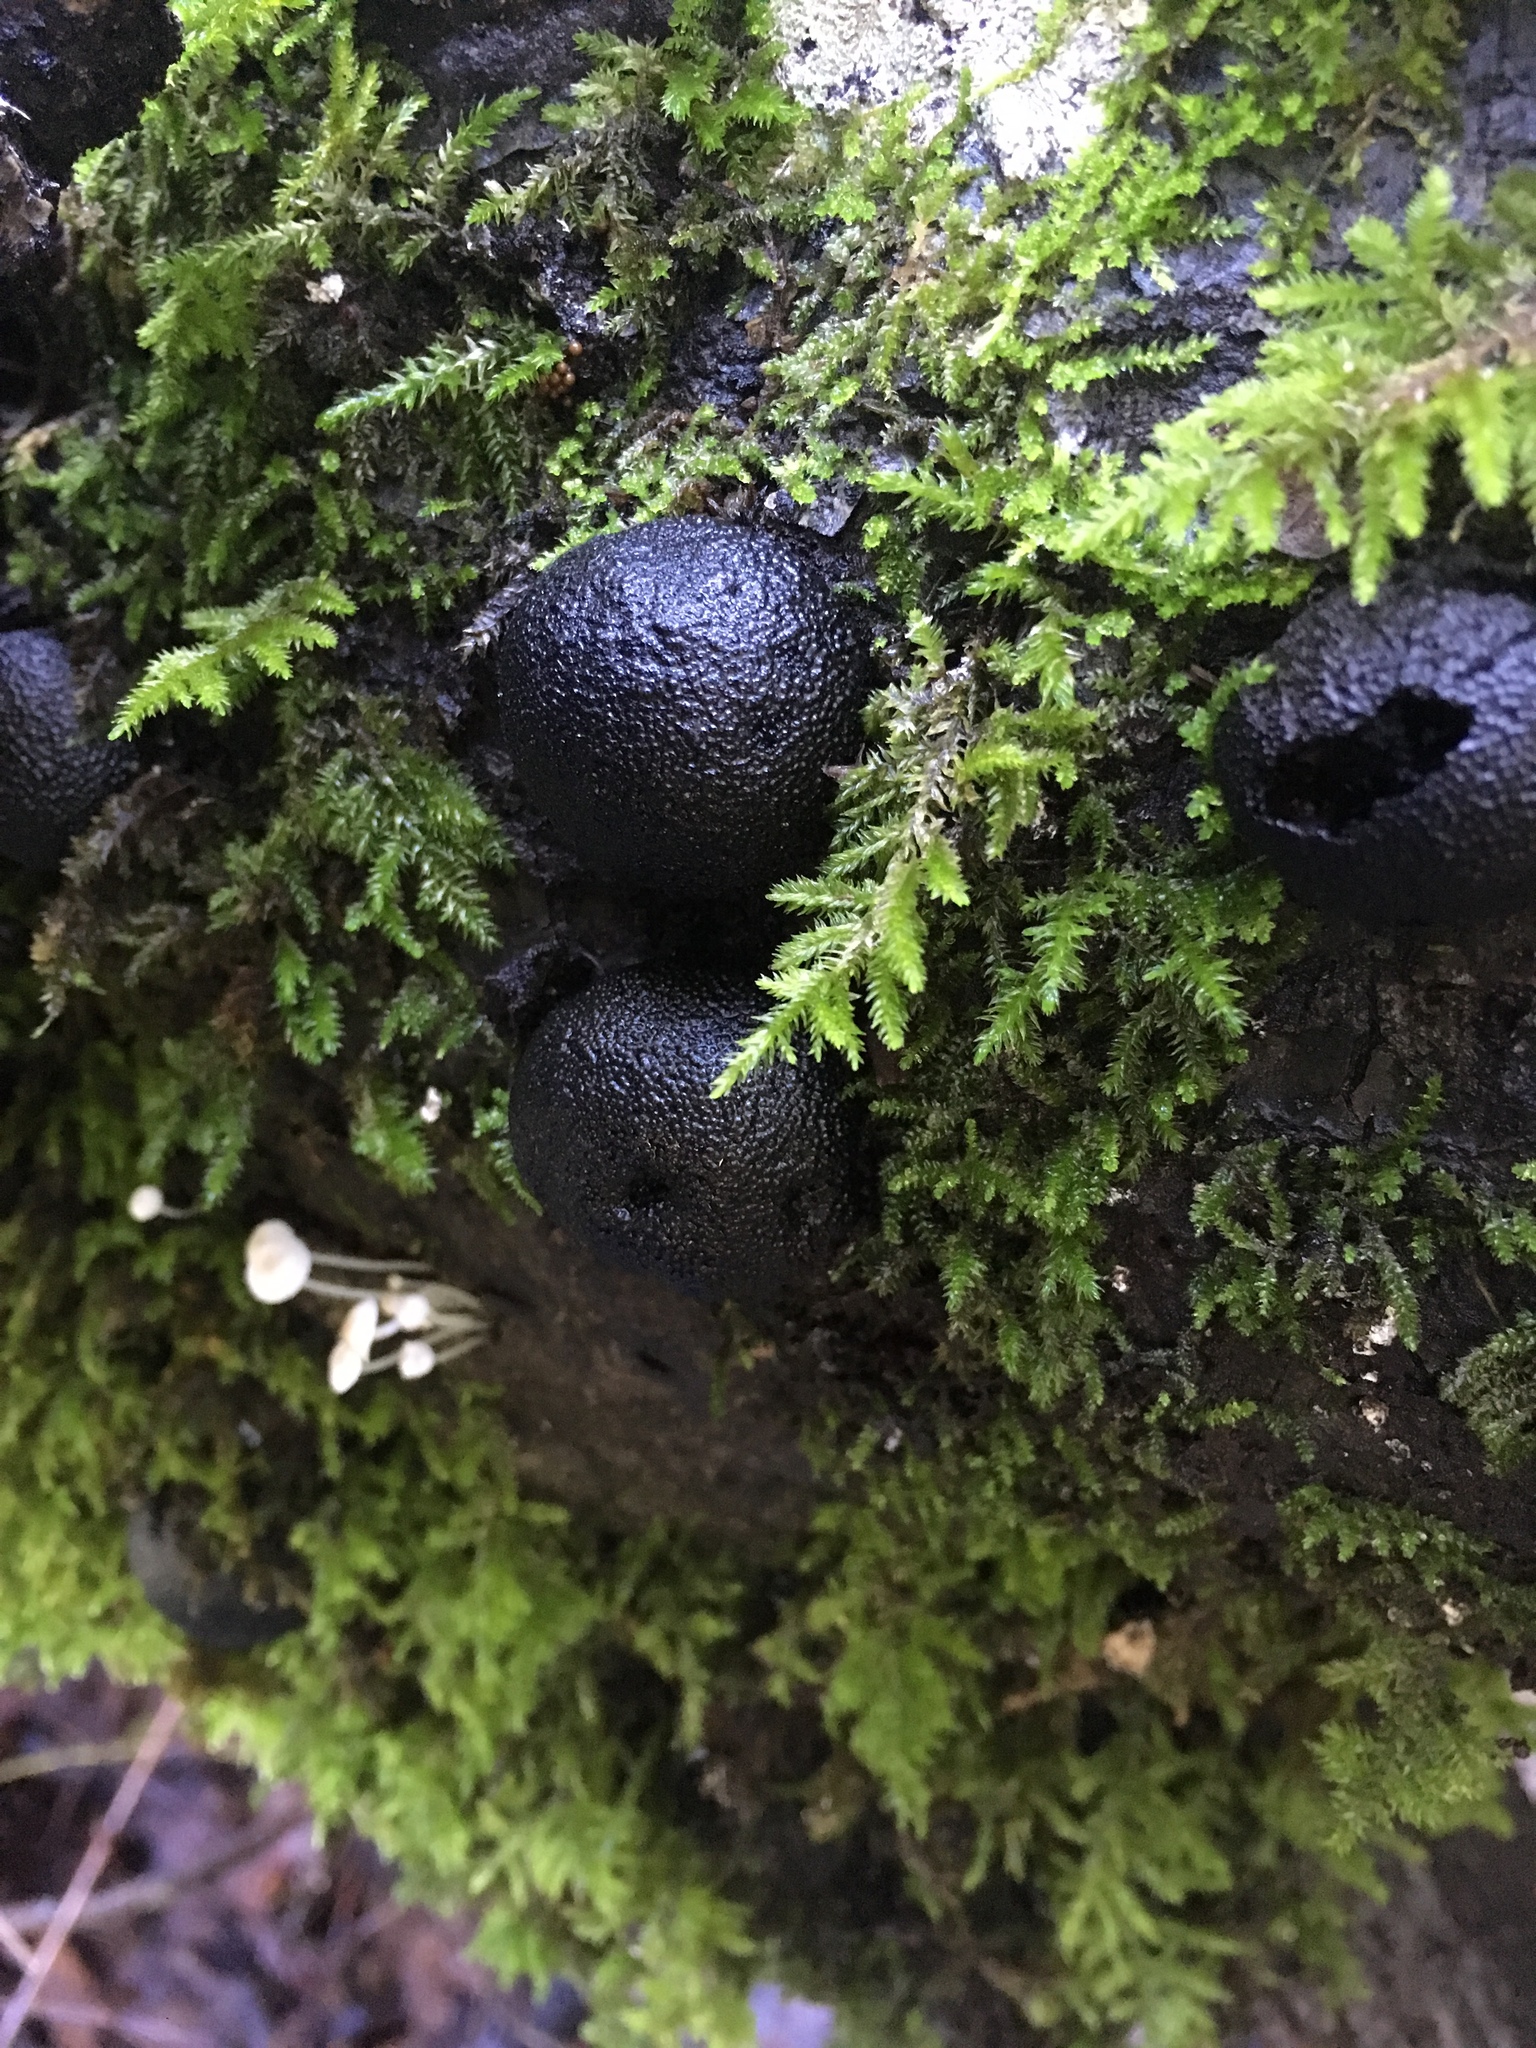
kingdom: Fungi
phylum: Ascomycota
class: Sordariomycetes
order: Xylariales
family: Hypoxylaceae
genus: Annulohypoxylon
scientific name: Annulohypoxylon thouarsianum
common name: Cramp balls
